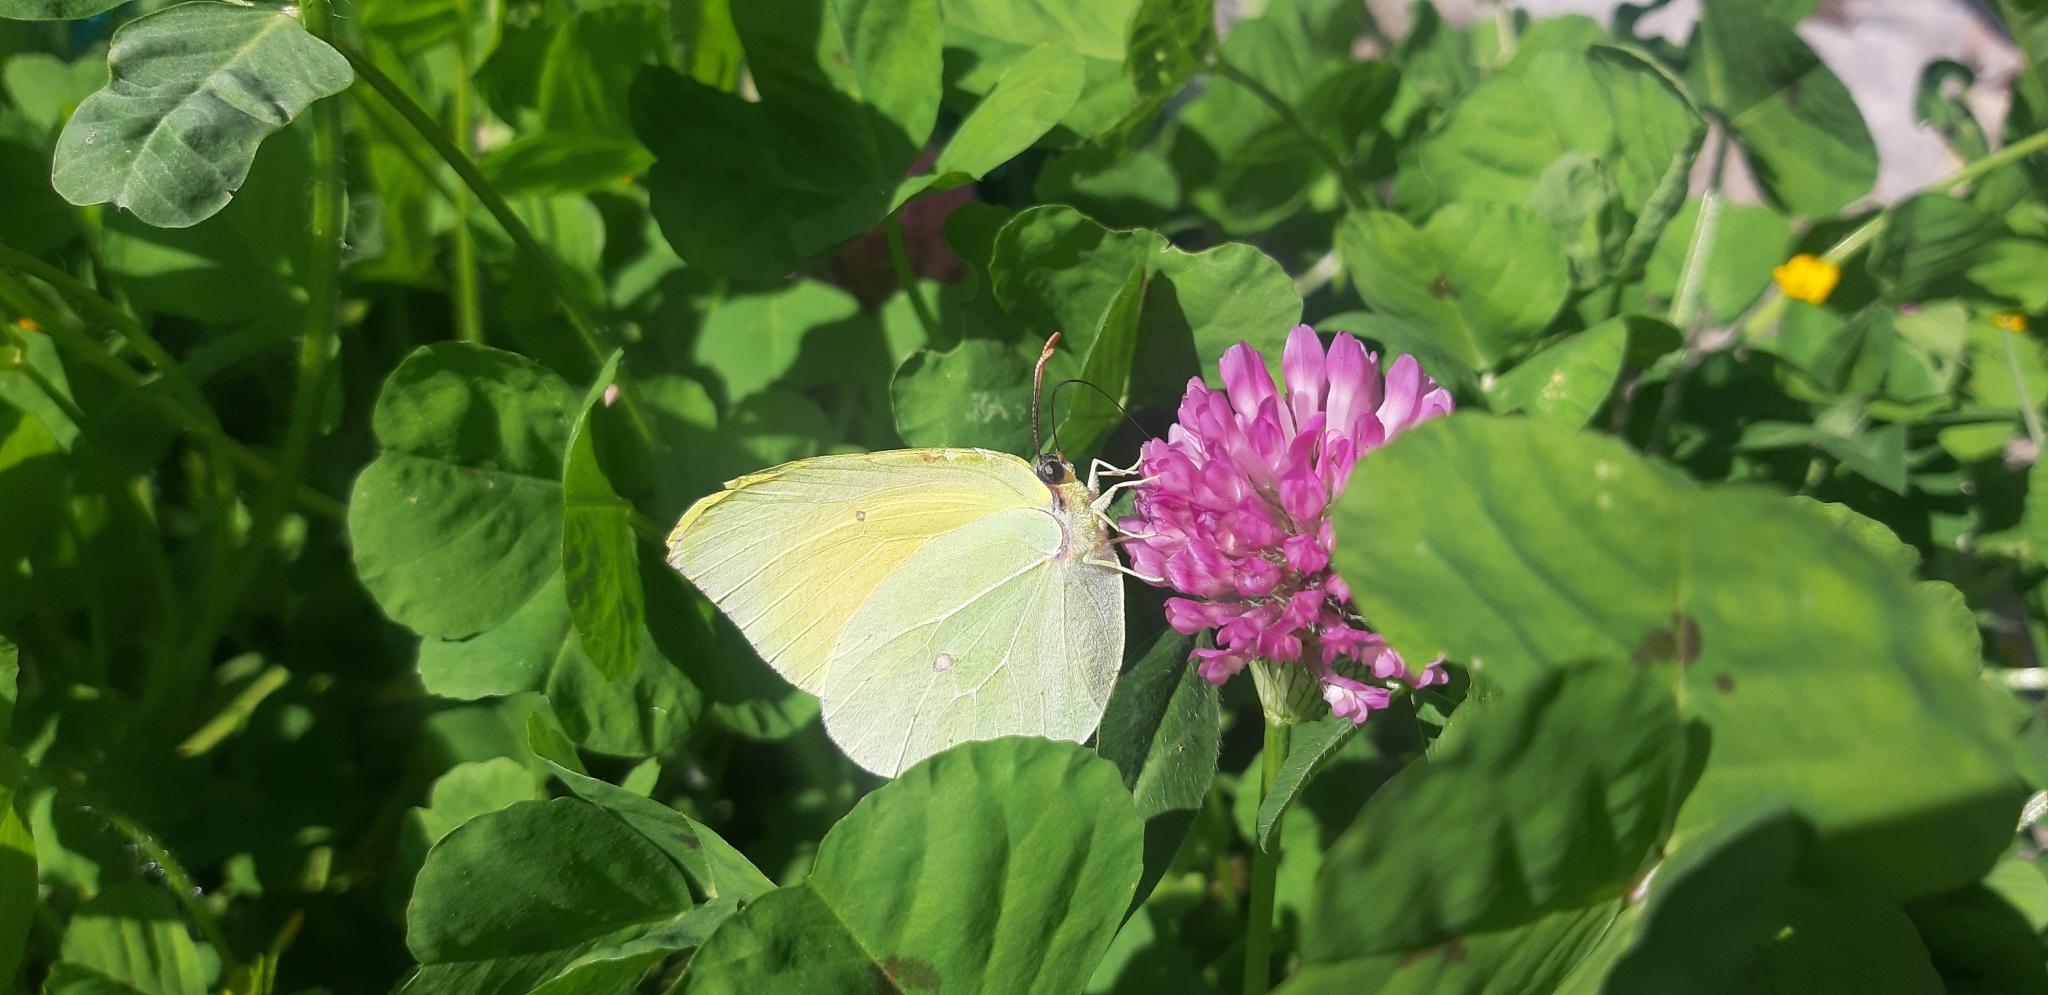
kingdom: Animalia
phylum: Arthropoda
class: Insecta
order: Lepidoptera
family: Pieridae
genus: Gonepteryx
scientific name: Gonepteryx cleopatra
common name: Cleopatra
